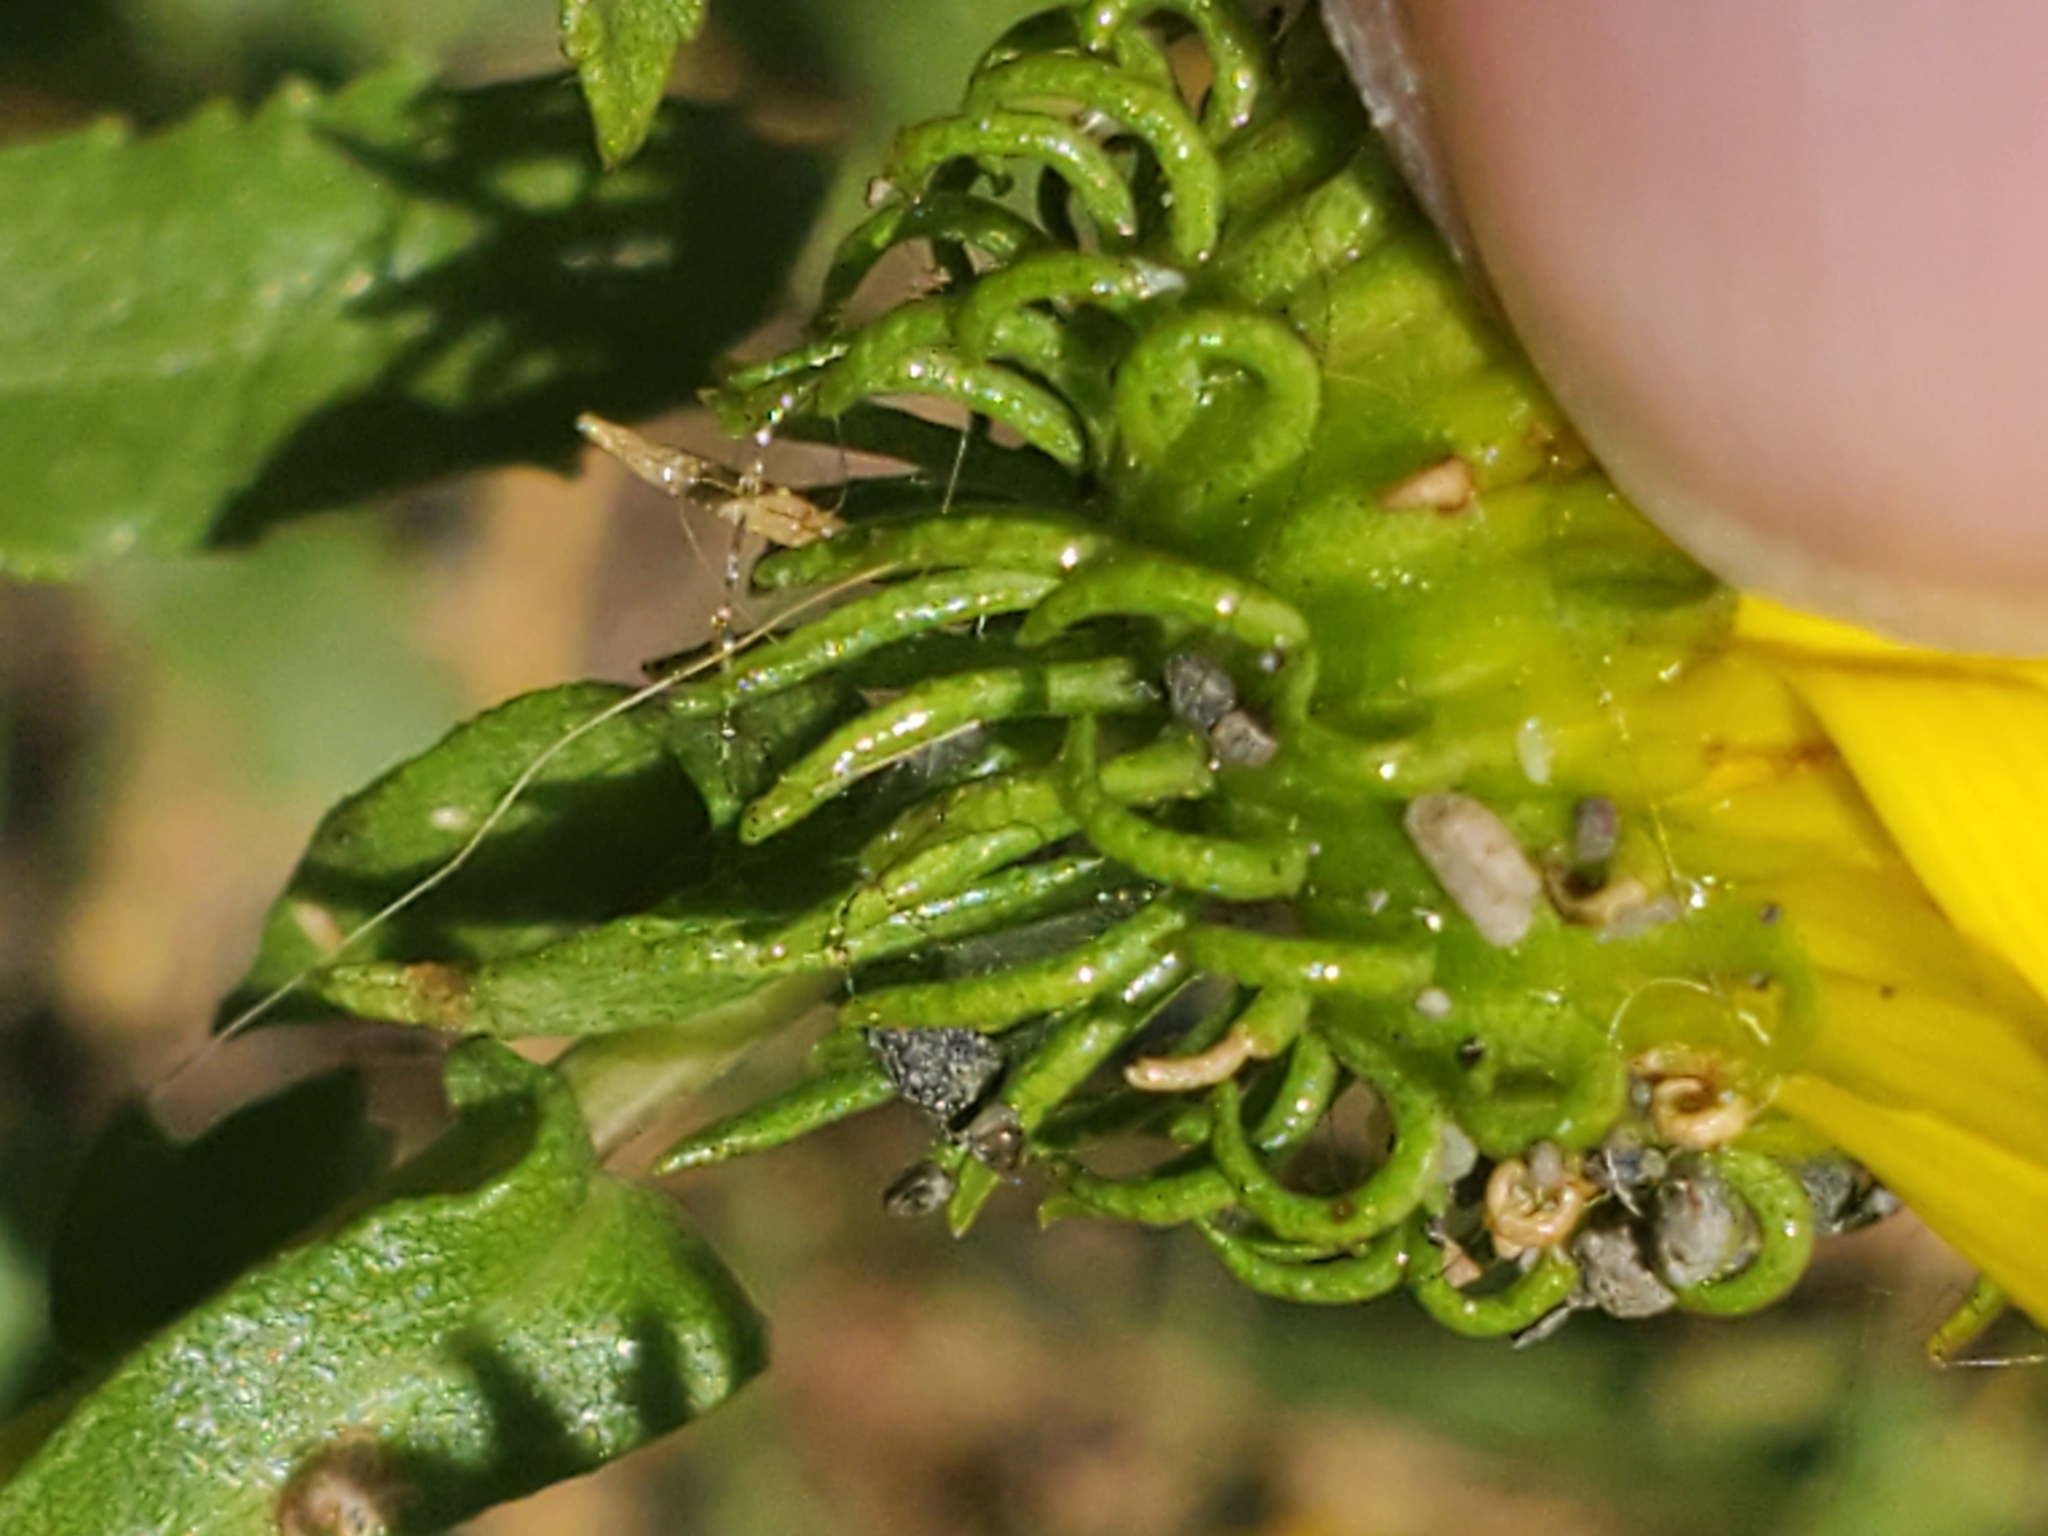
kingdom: Plantae
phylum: Tracheophyta
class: Magnoliopsida
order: Asterales
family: Asteraceae
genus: Grindelia
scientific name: Grindelia squarrosa
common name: Curly-cup gumweed
